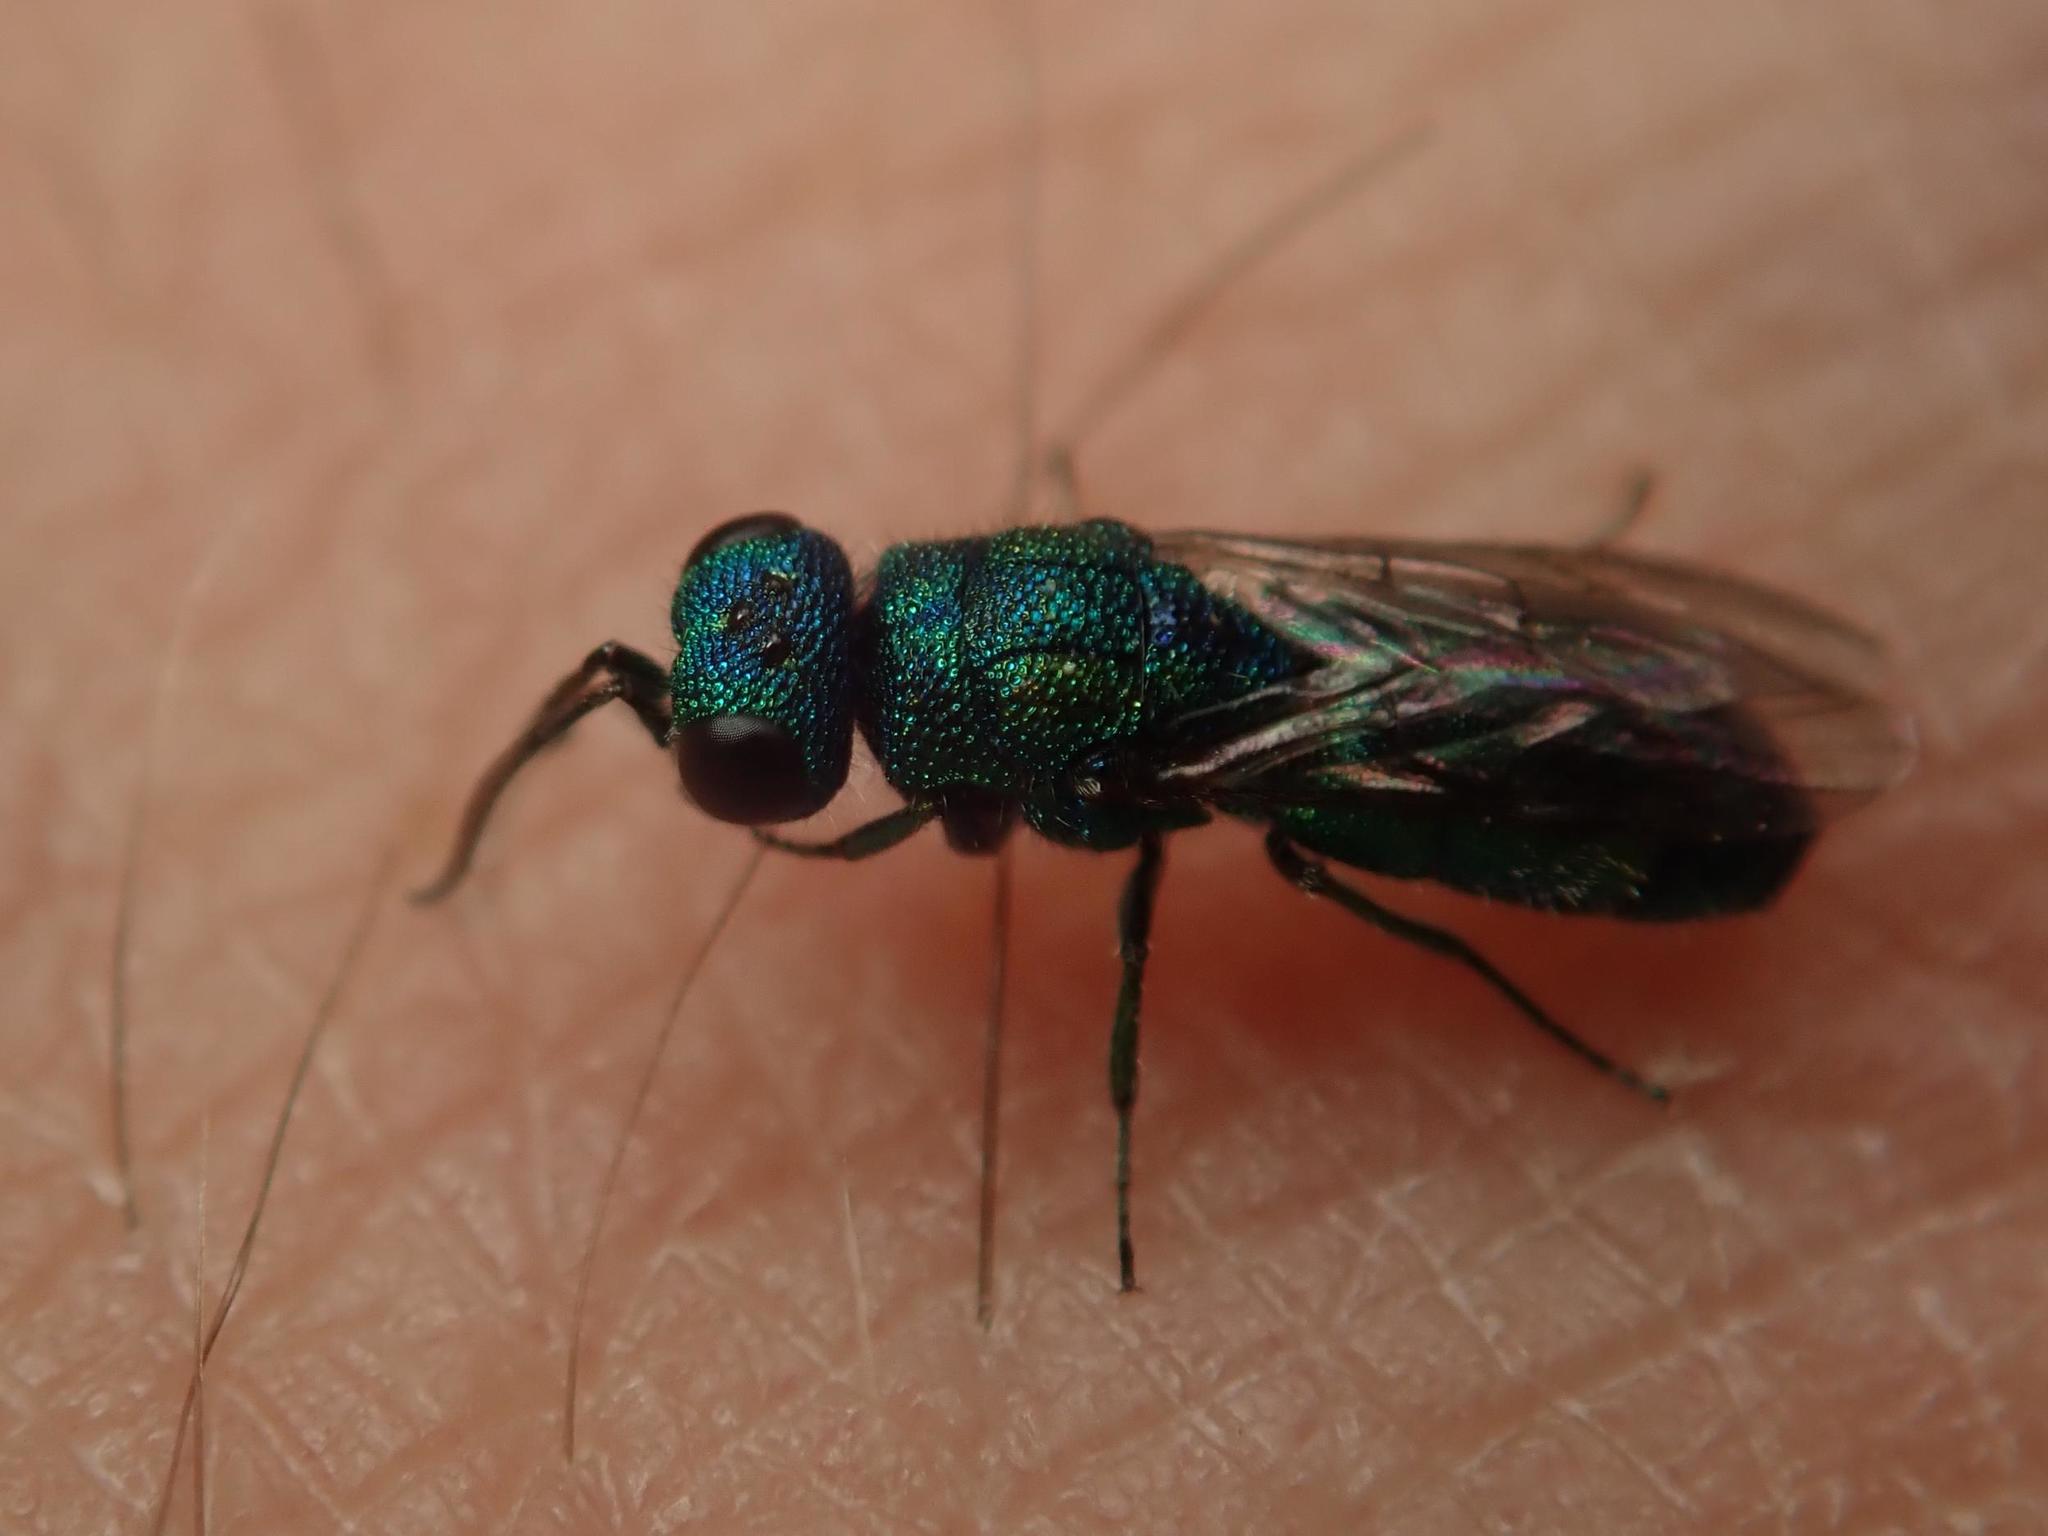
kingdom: Animalia
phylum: Arthropoda
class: Insecta
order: Hymenoptera
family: Pompilidae
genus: Pepsis
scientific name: Pepsis cyanea
